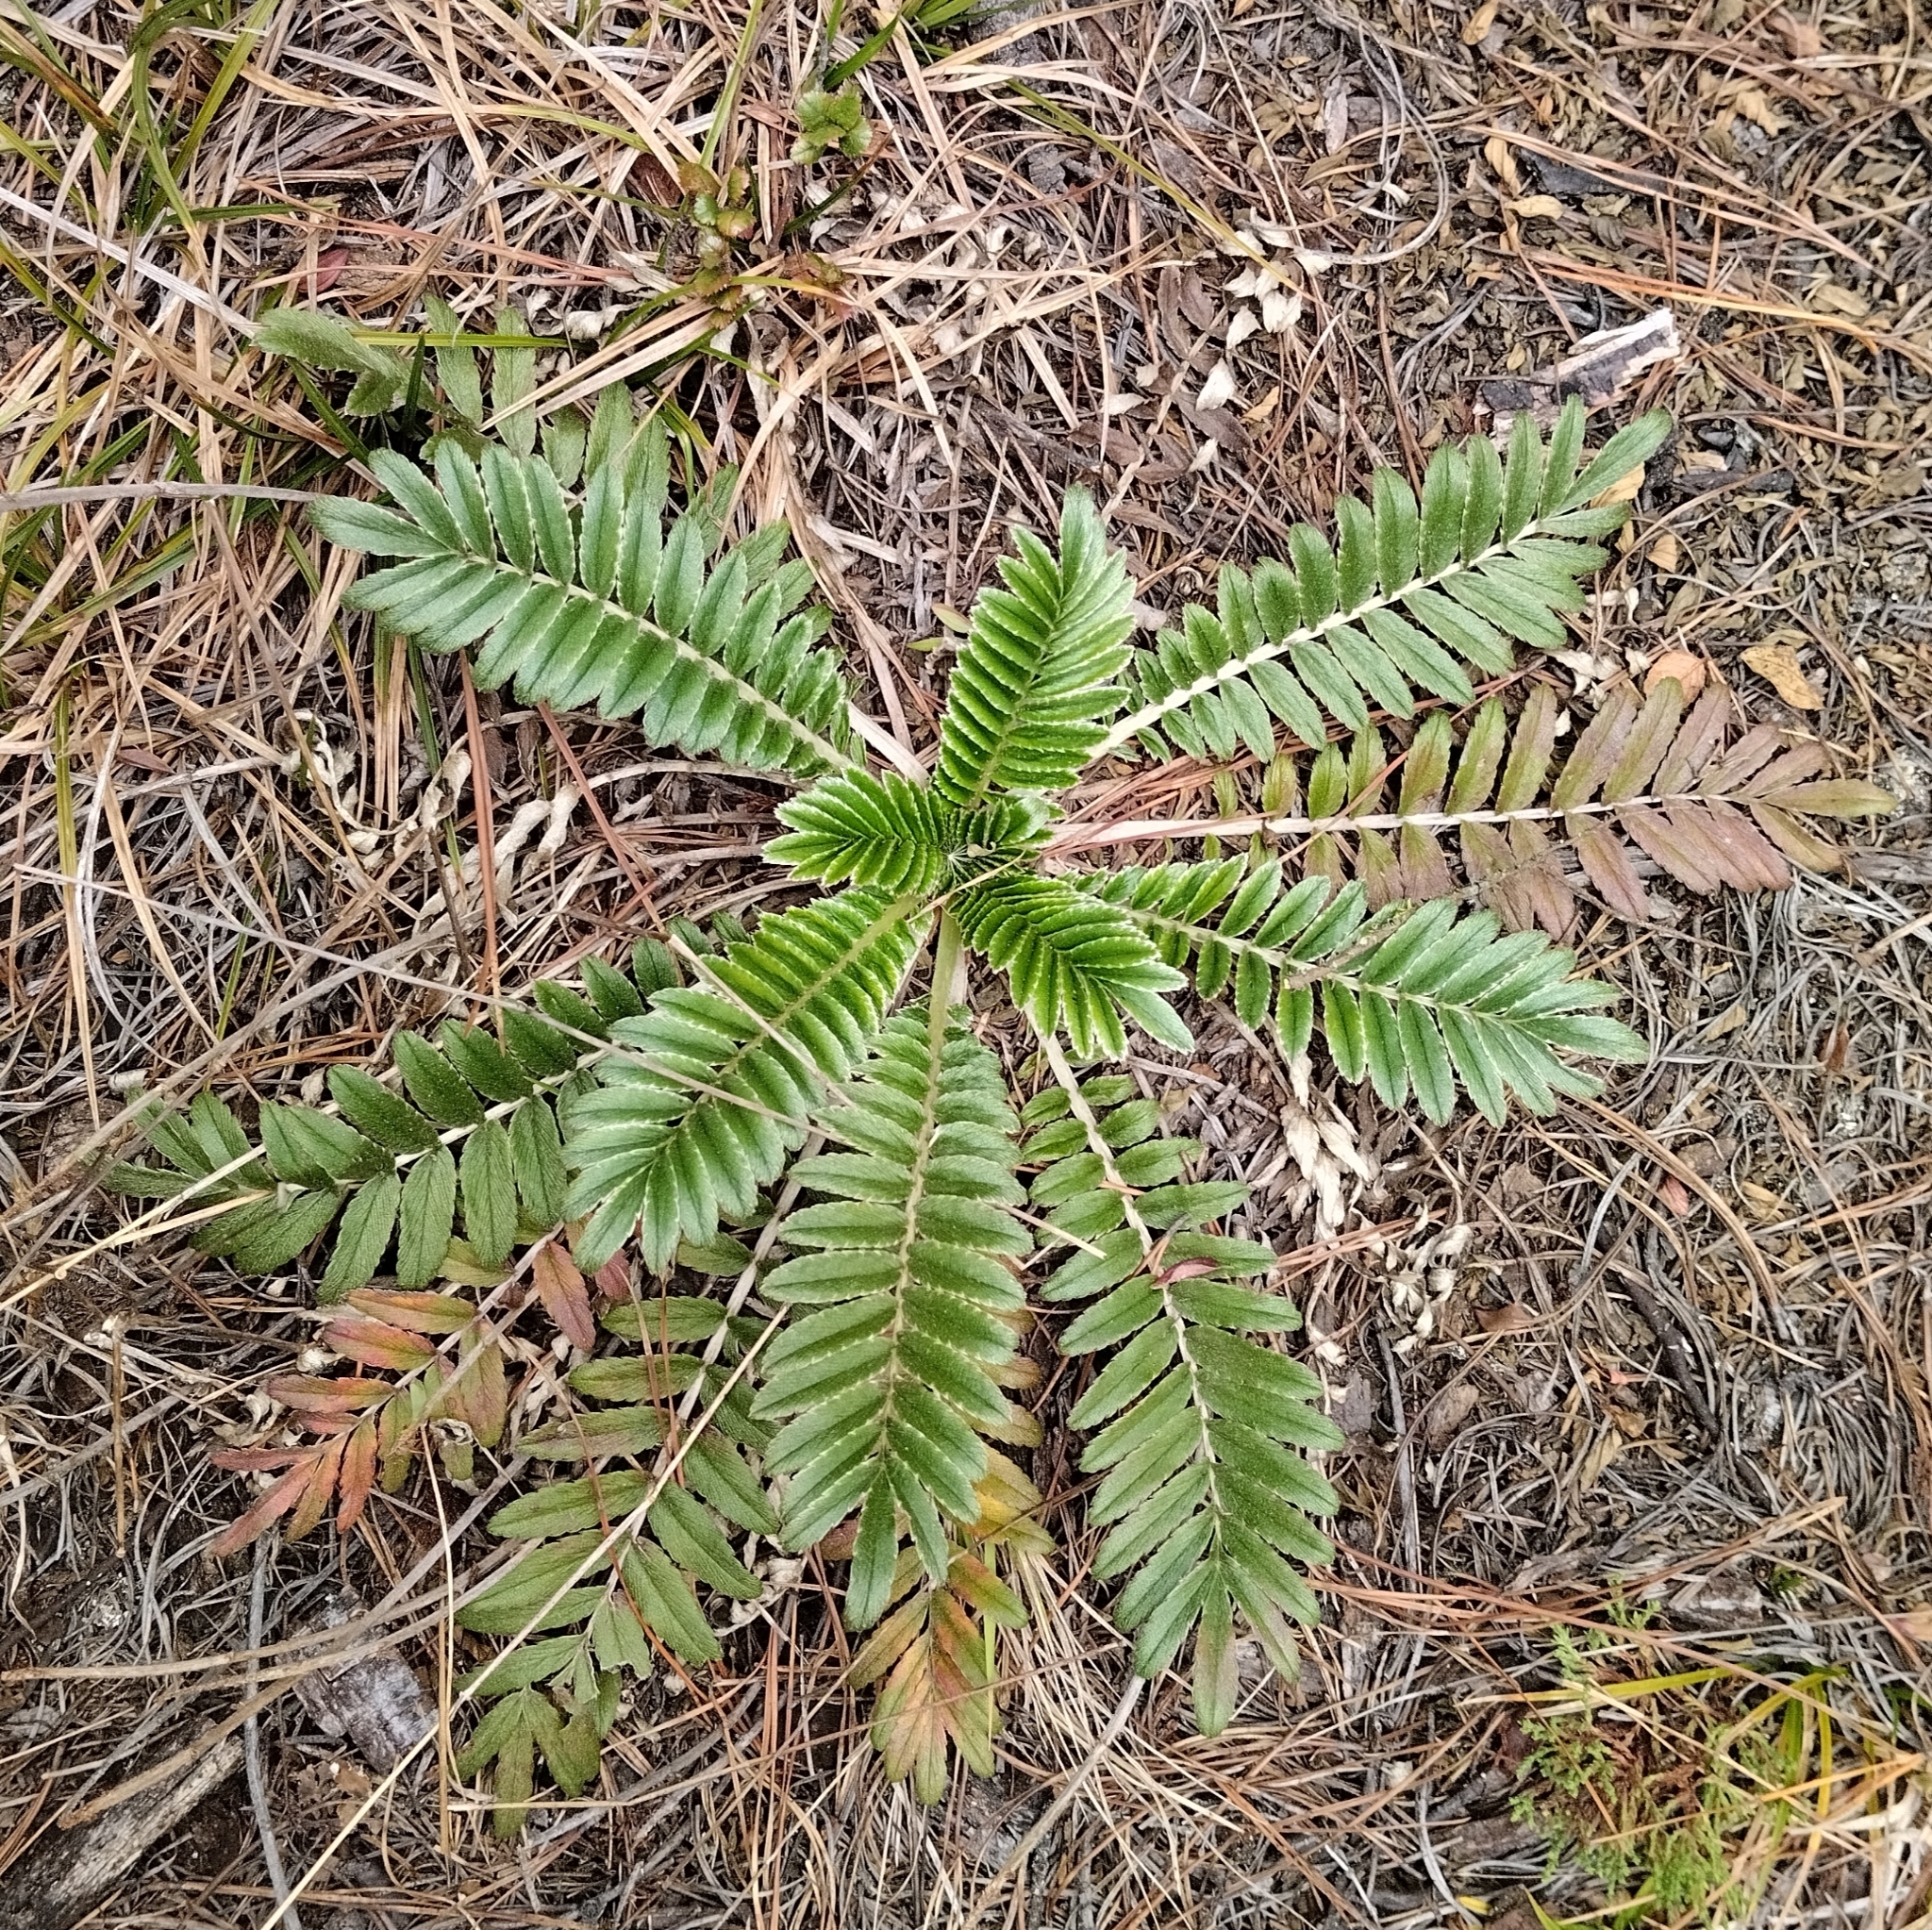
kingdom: Plantae
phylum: Tracheophyta
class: Magnoliopsida
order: Rosales
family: Rosaceae
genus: Acaena
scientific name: Acaena cylindristachya
